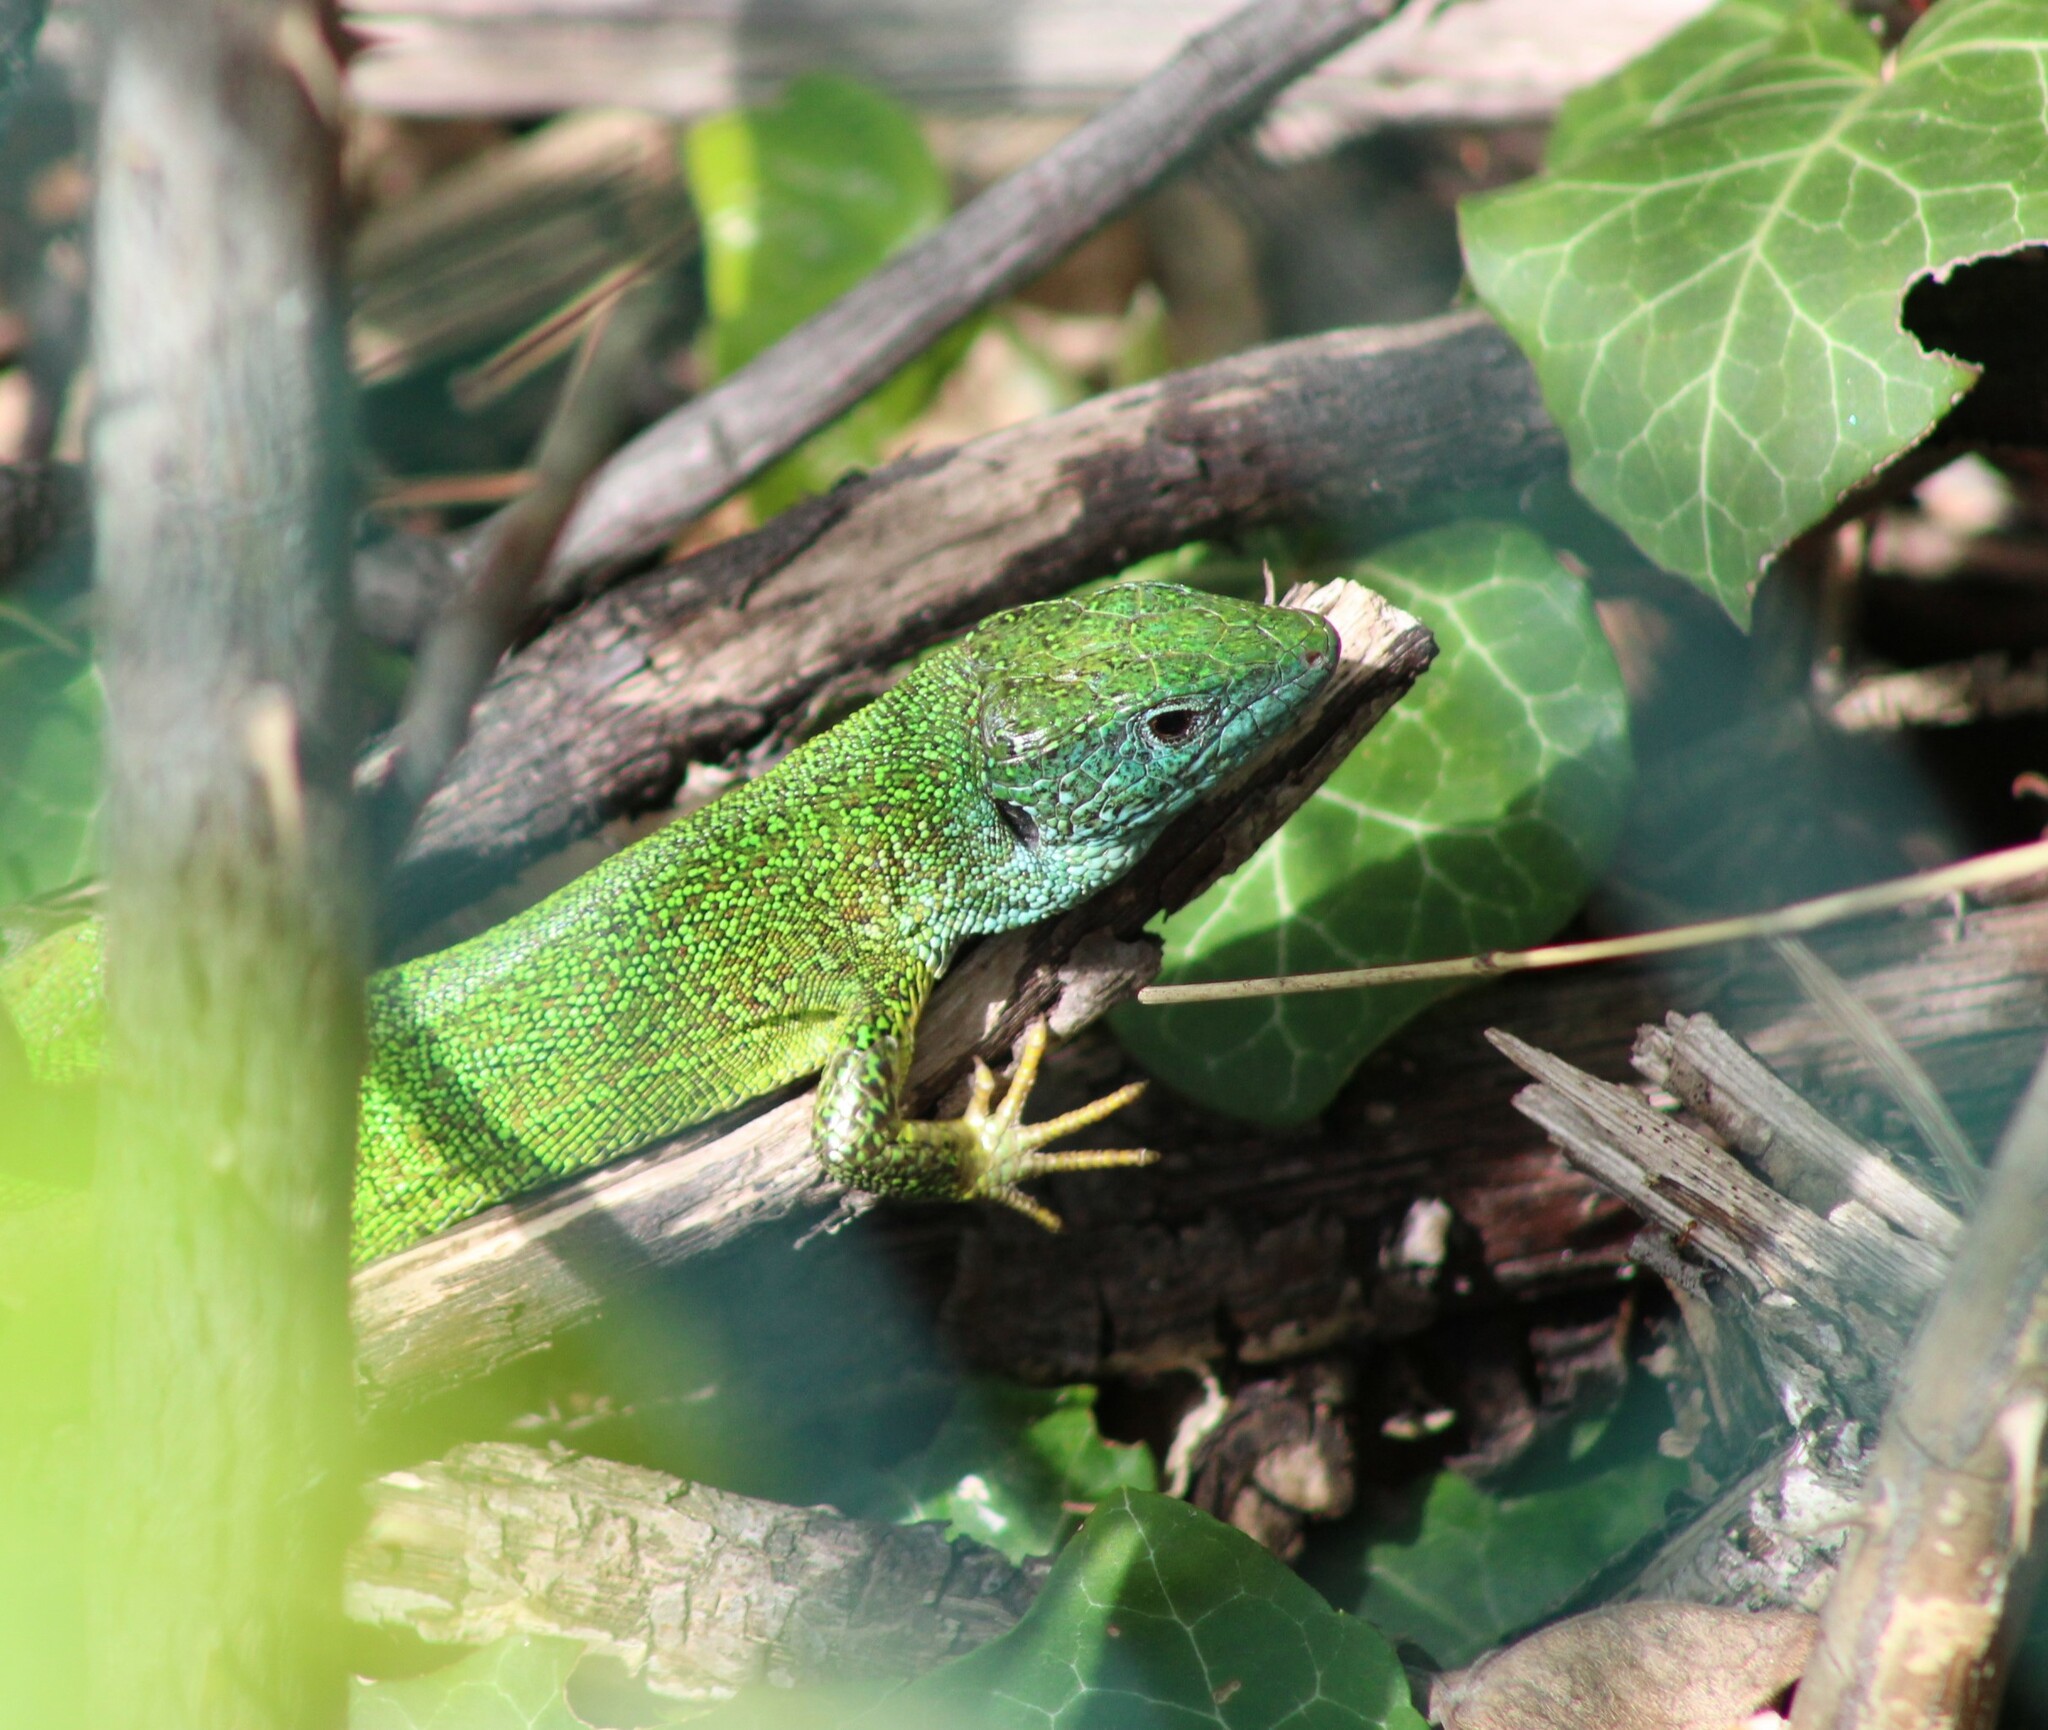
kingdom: Animalia
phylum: Chordata
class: Squamata
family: Lacertidae
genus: Lacerta
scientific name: Lacerta viridis
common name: European green lizard
